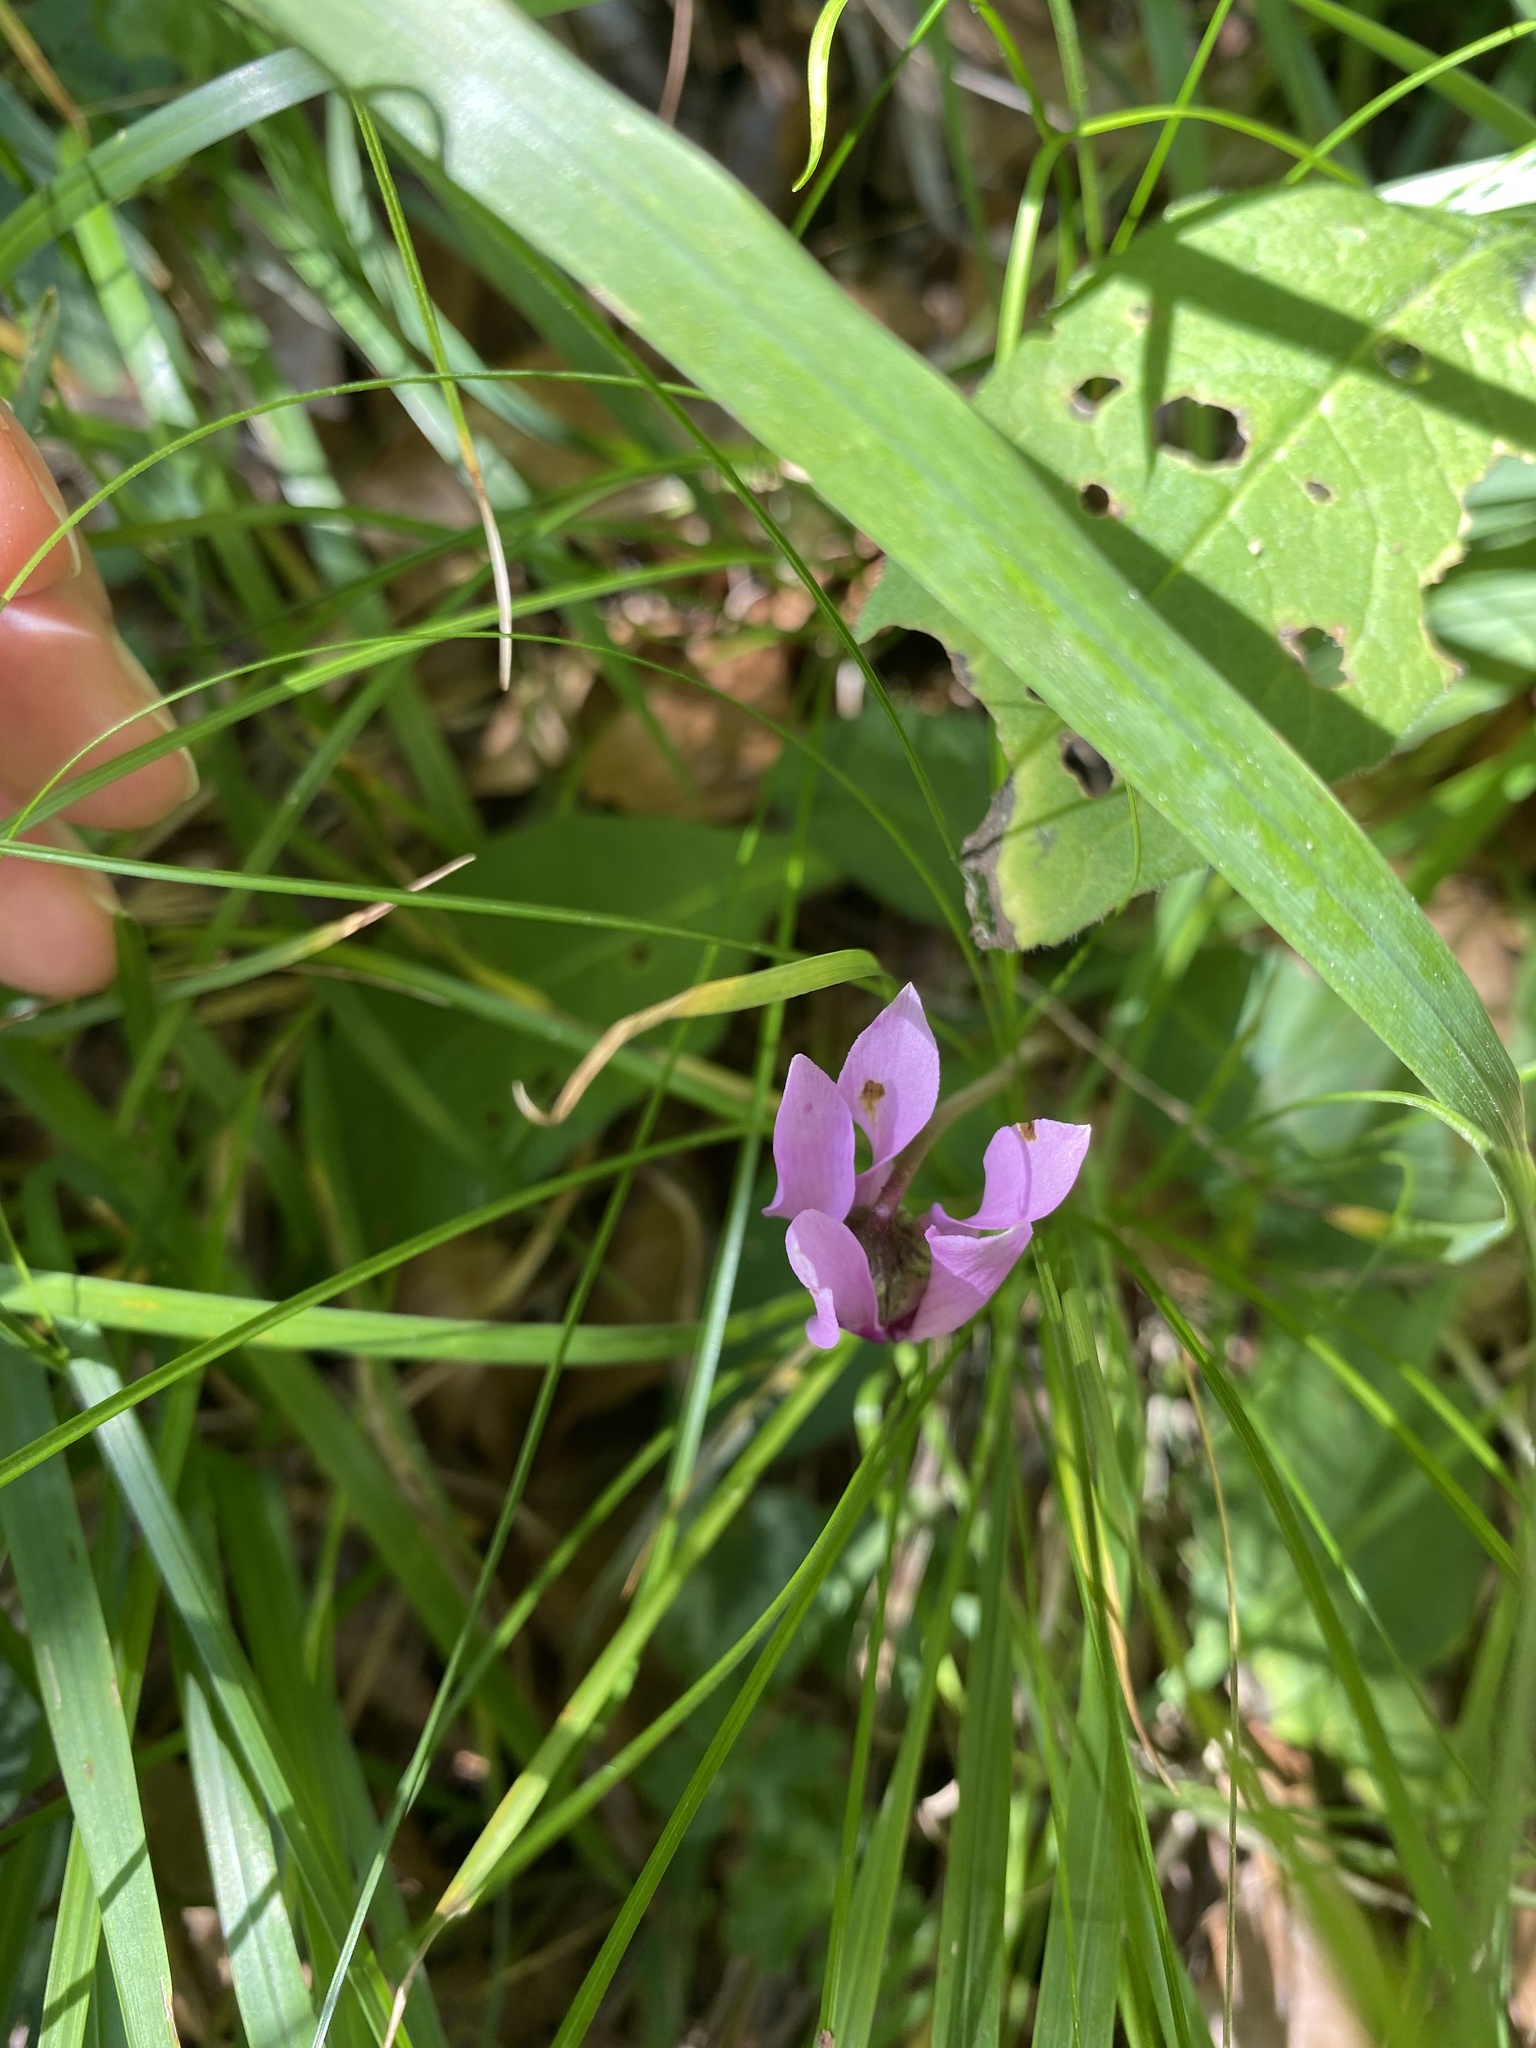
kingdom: Plantae
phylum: Tracheophyta
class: Magnoliopsida
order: Ericales
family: Primulaceae
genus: Cyclamen
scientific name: Cyclamen purpurascens
